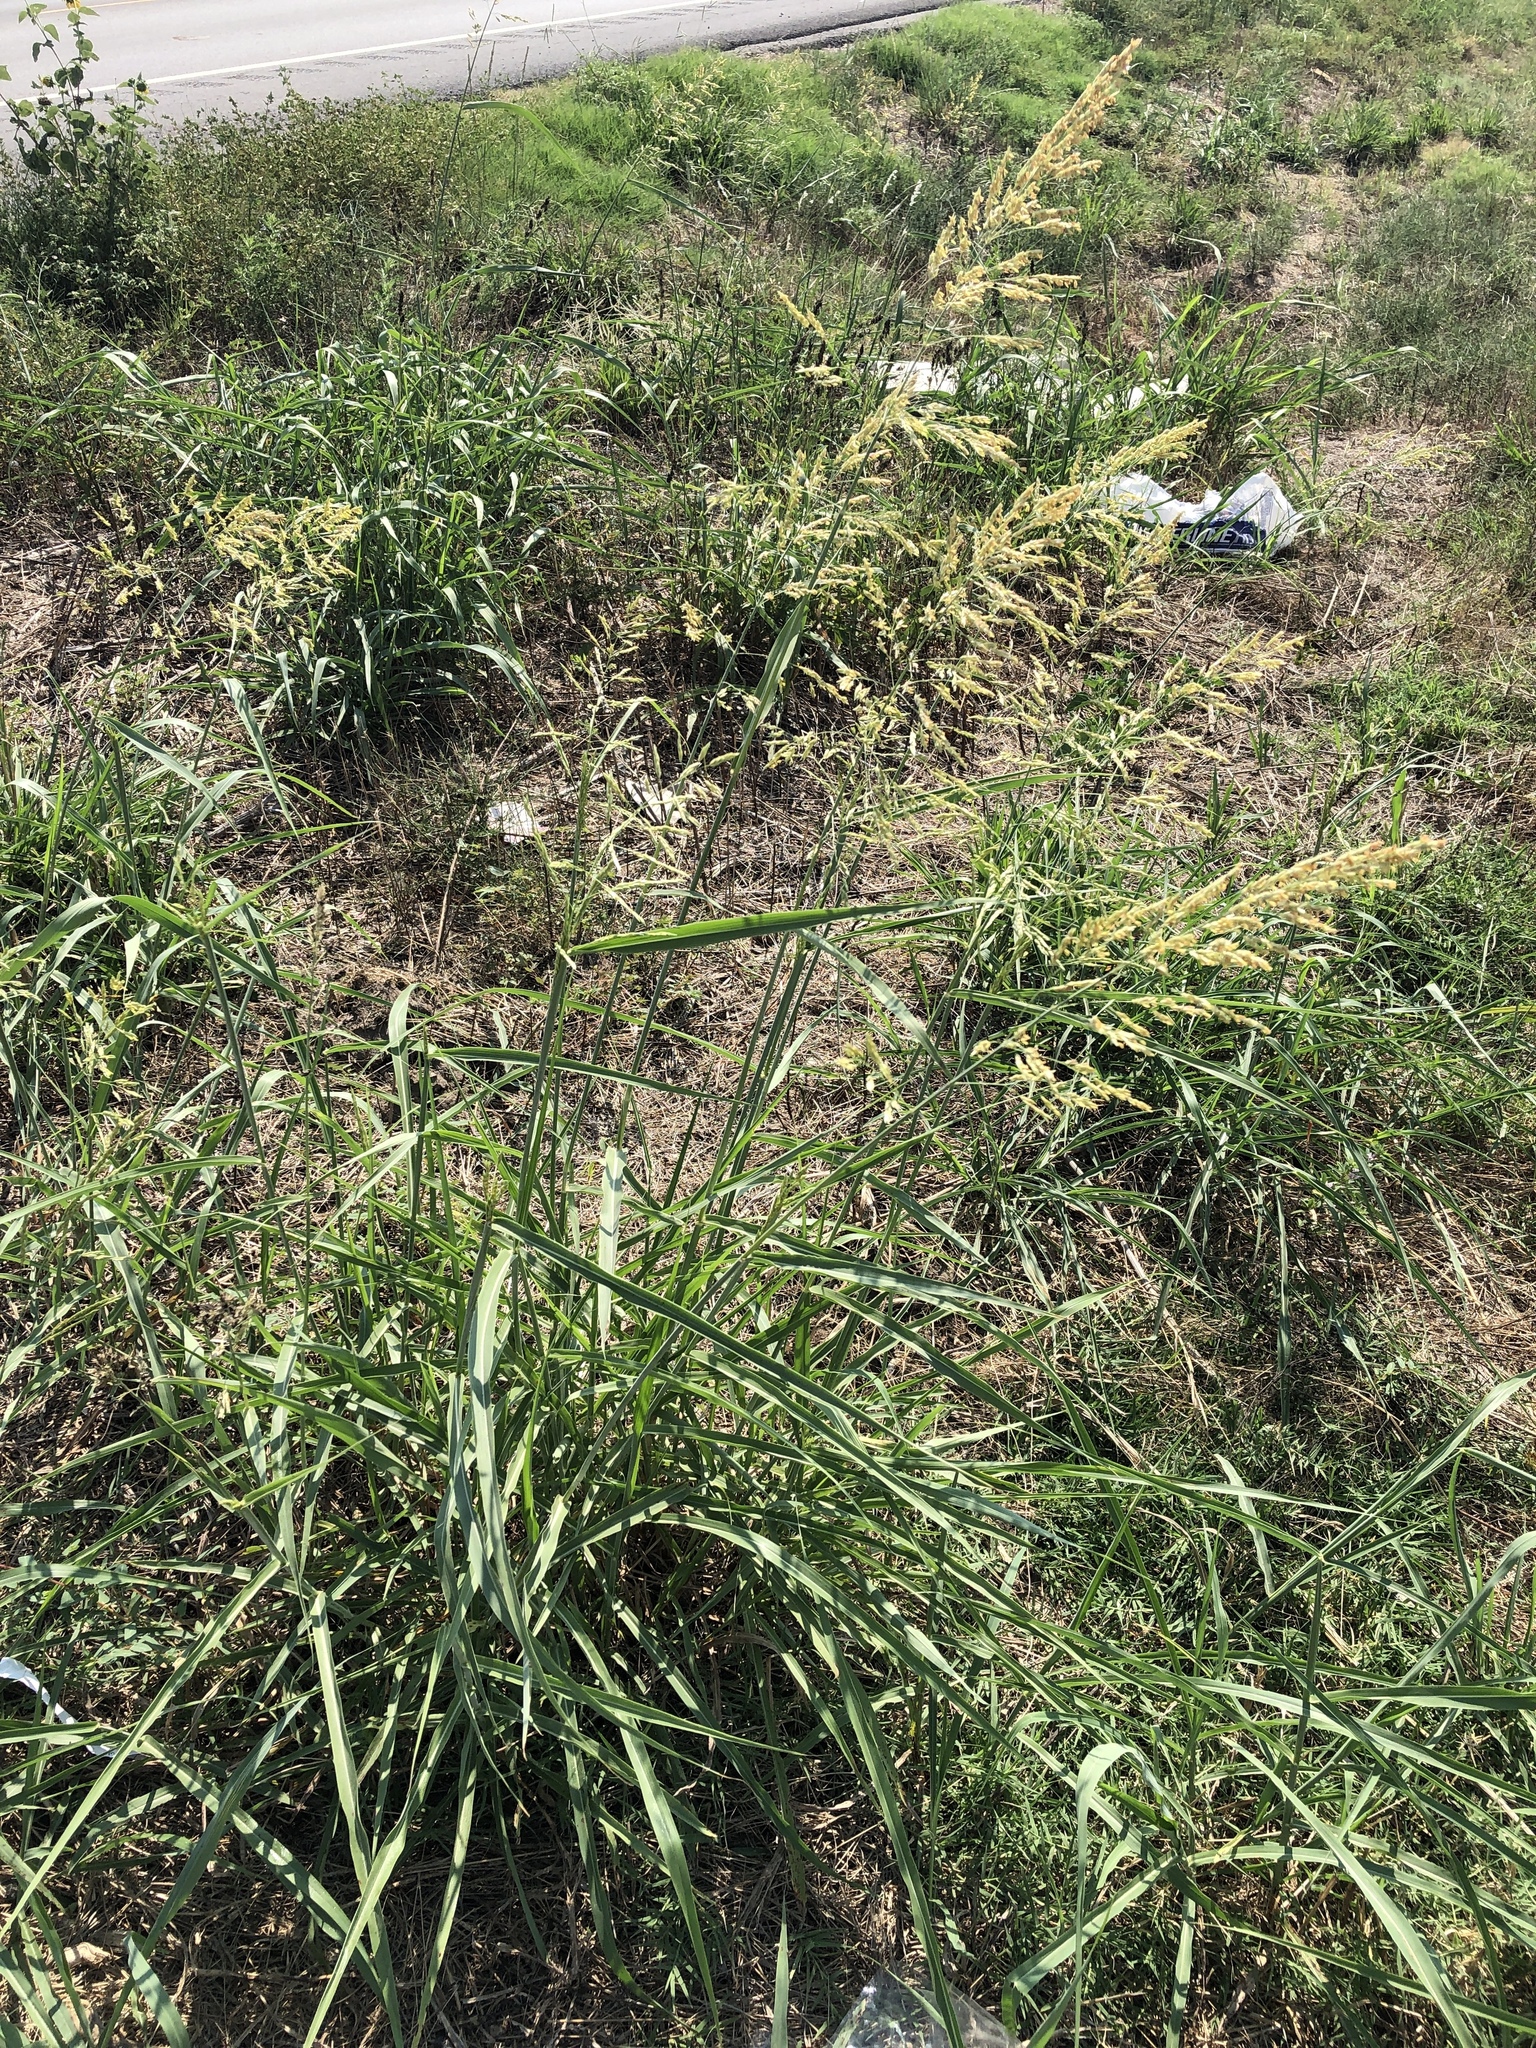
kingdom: Plantae
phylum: Tracheophyta
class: Liliopsida
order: Poales
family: Poaceae
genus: Sorghum
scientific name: Sorghum halepense
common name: Johnson-grass
